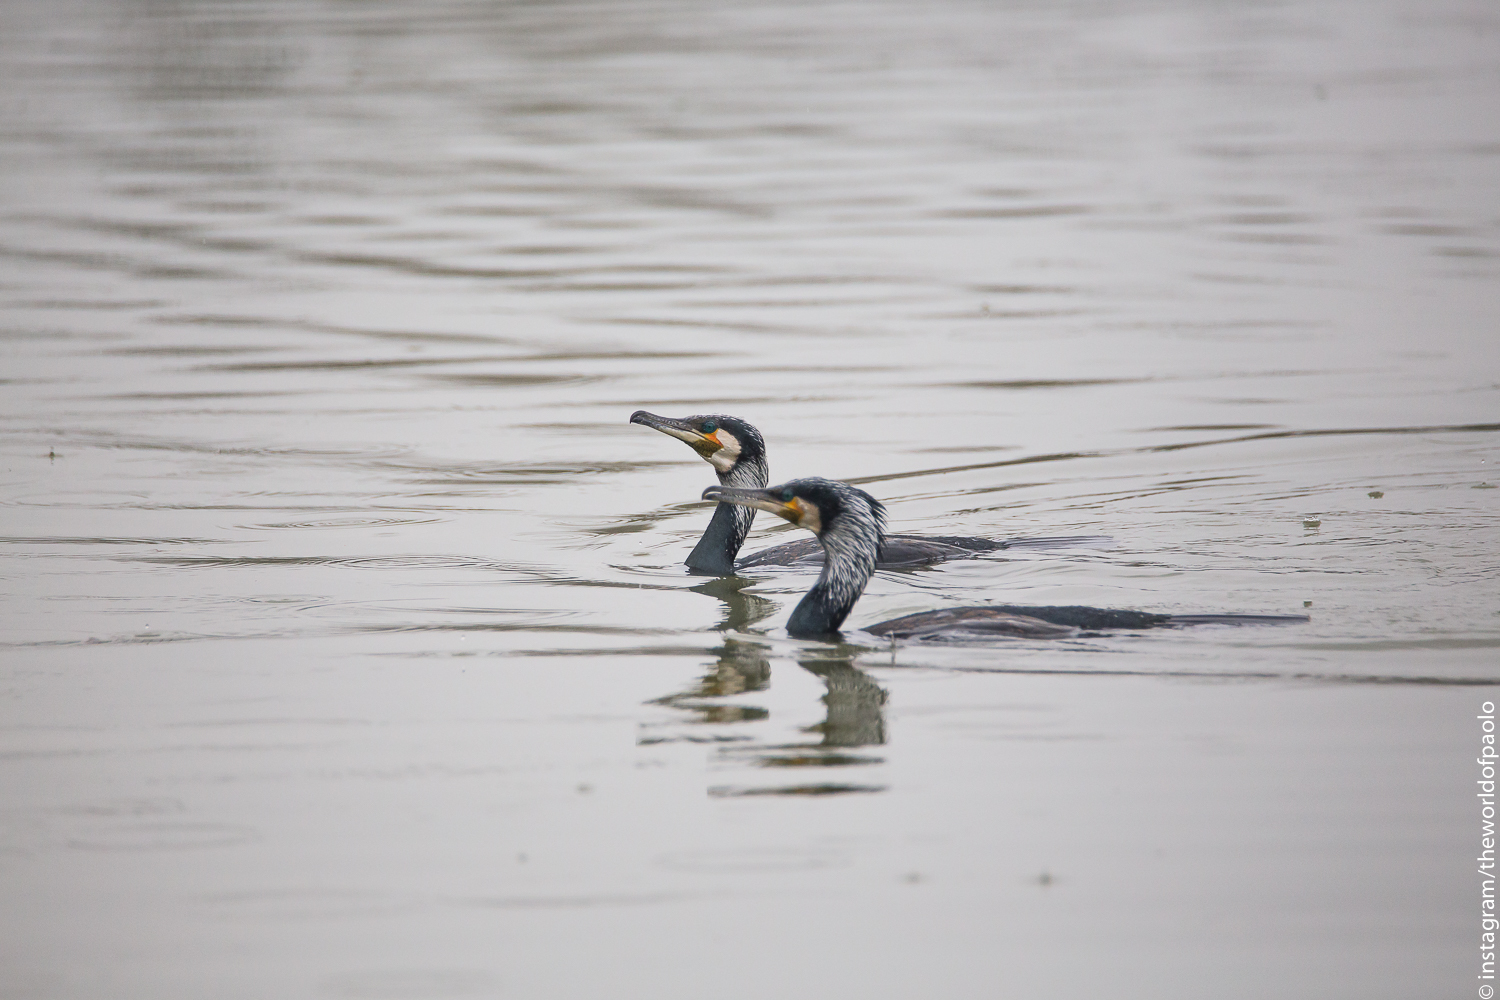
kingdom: Animalia
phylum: Chordata
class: Aves
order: Suliformes
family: Phalacrocoracidae
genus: Phalacrocorax
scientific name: Phalacrocorax carbo
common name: Great cormorant
